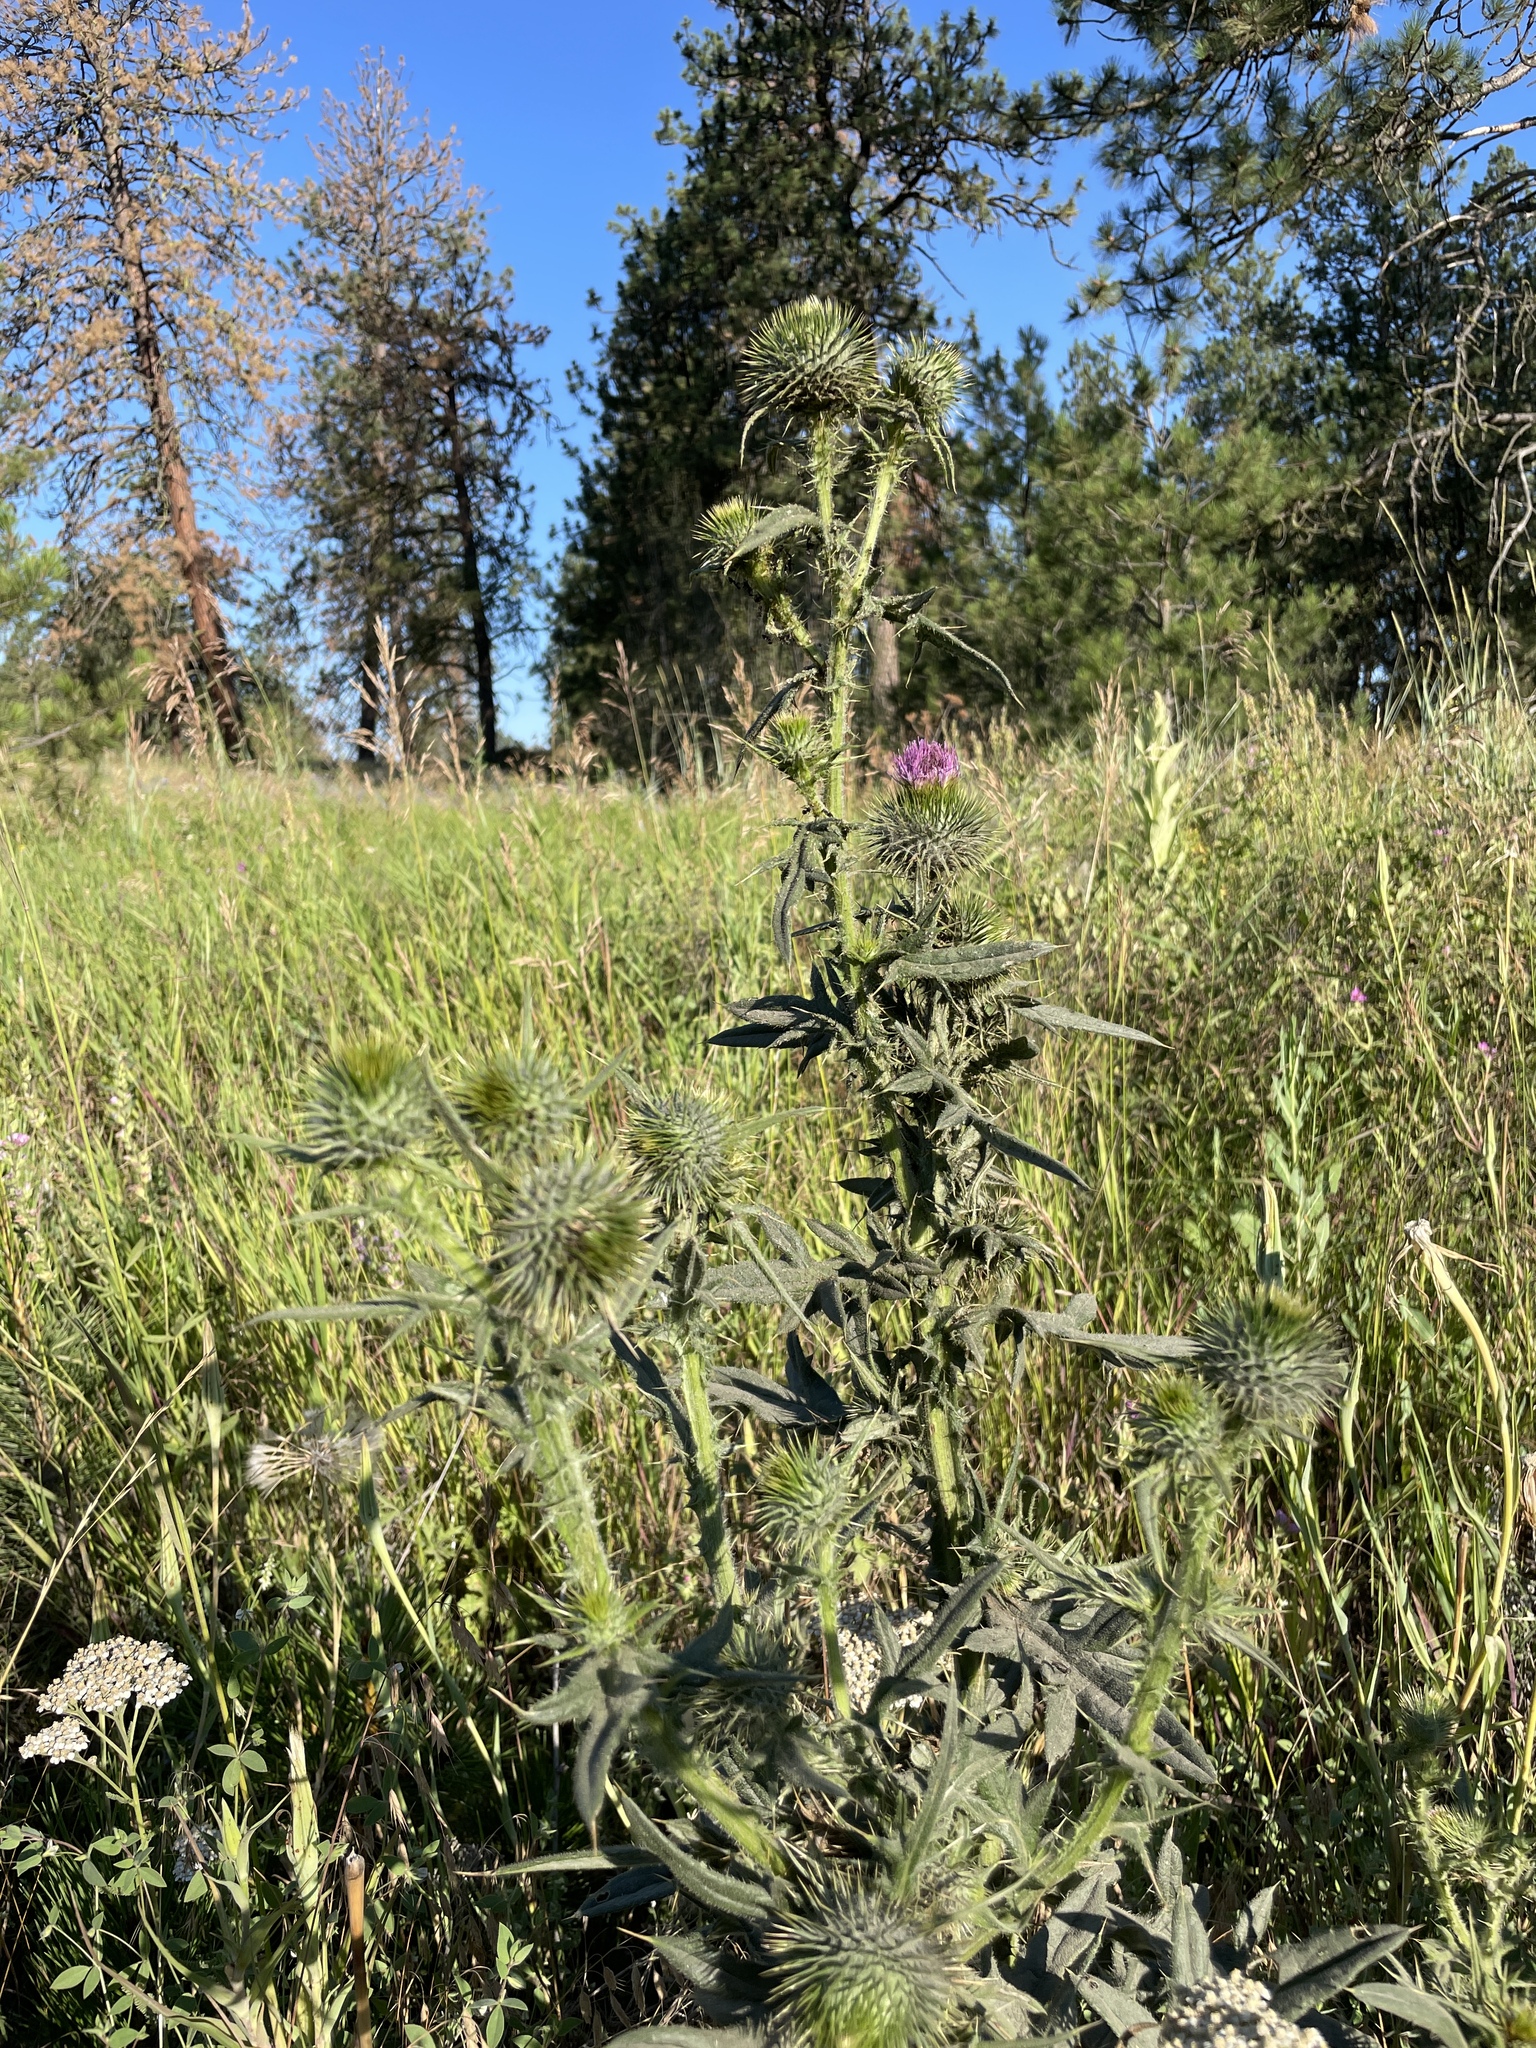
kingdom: Plantae
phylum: Tracheophyta
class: Magnoliopsida
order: Asterales
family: Asteraceae
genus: Cirsium
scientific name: Cirsium vulgare
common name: Bull thistle
